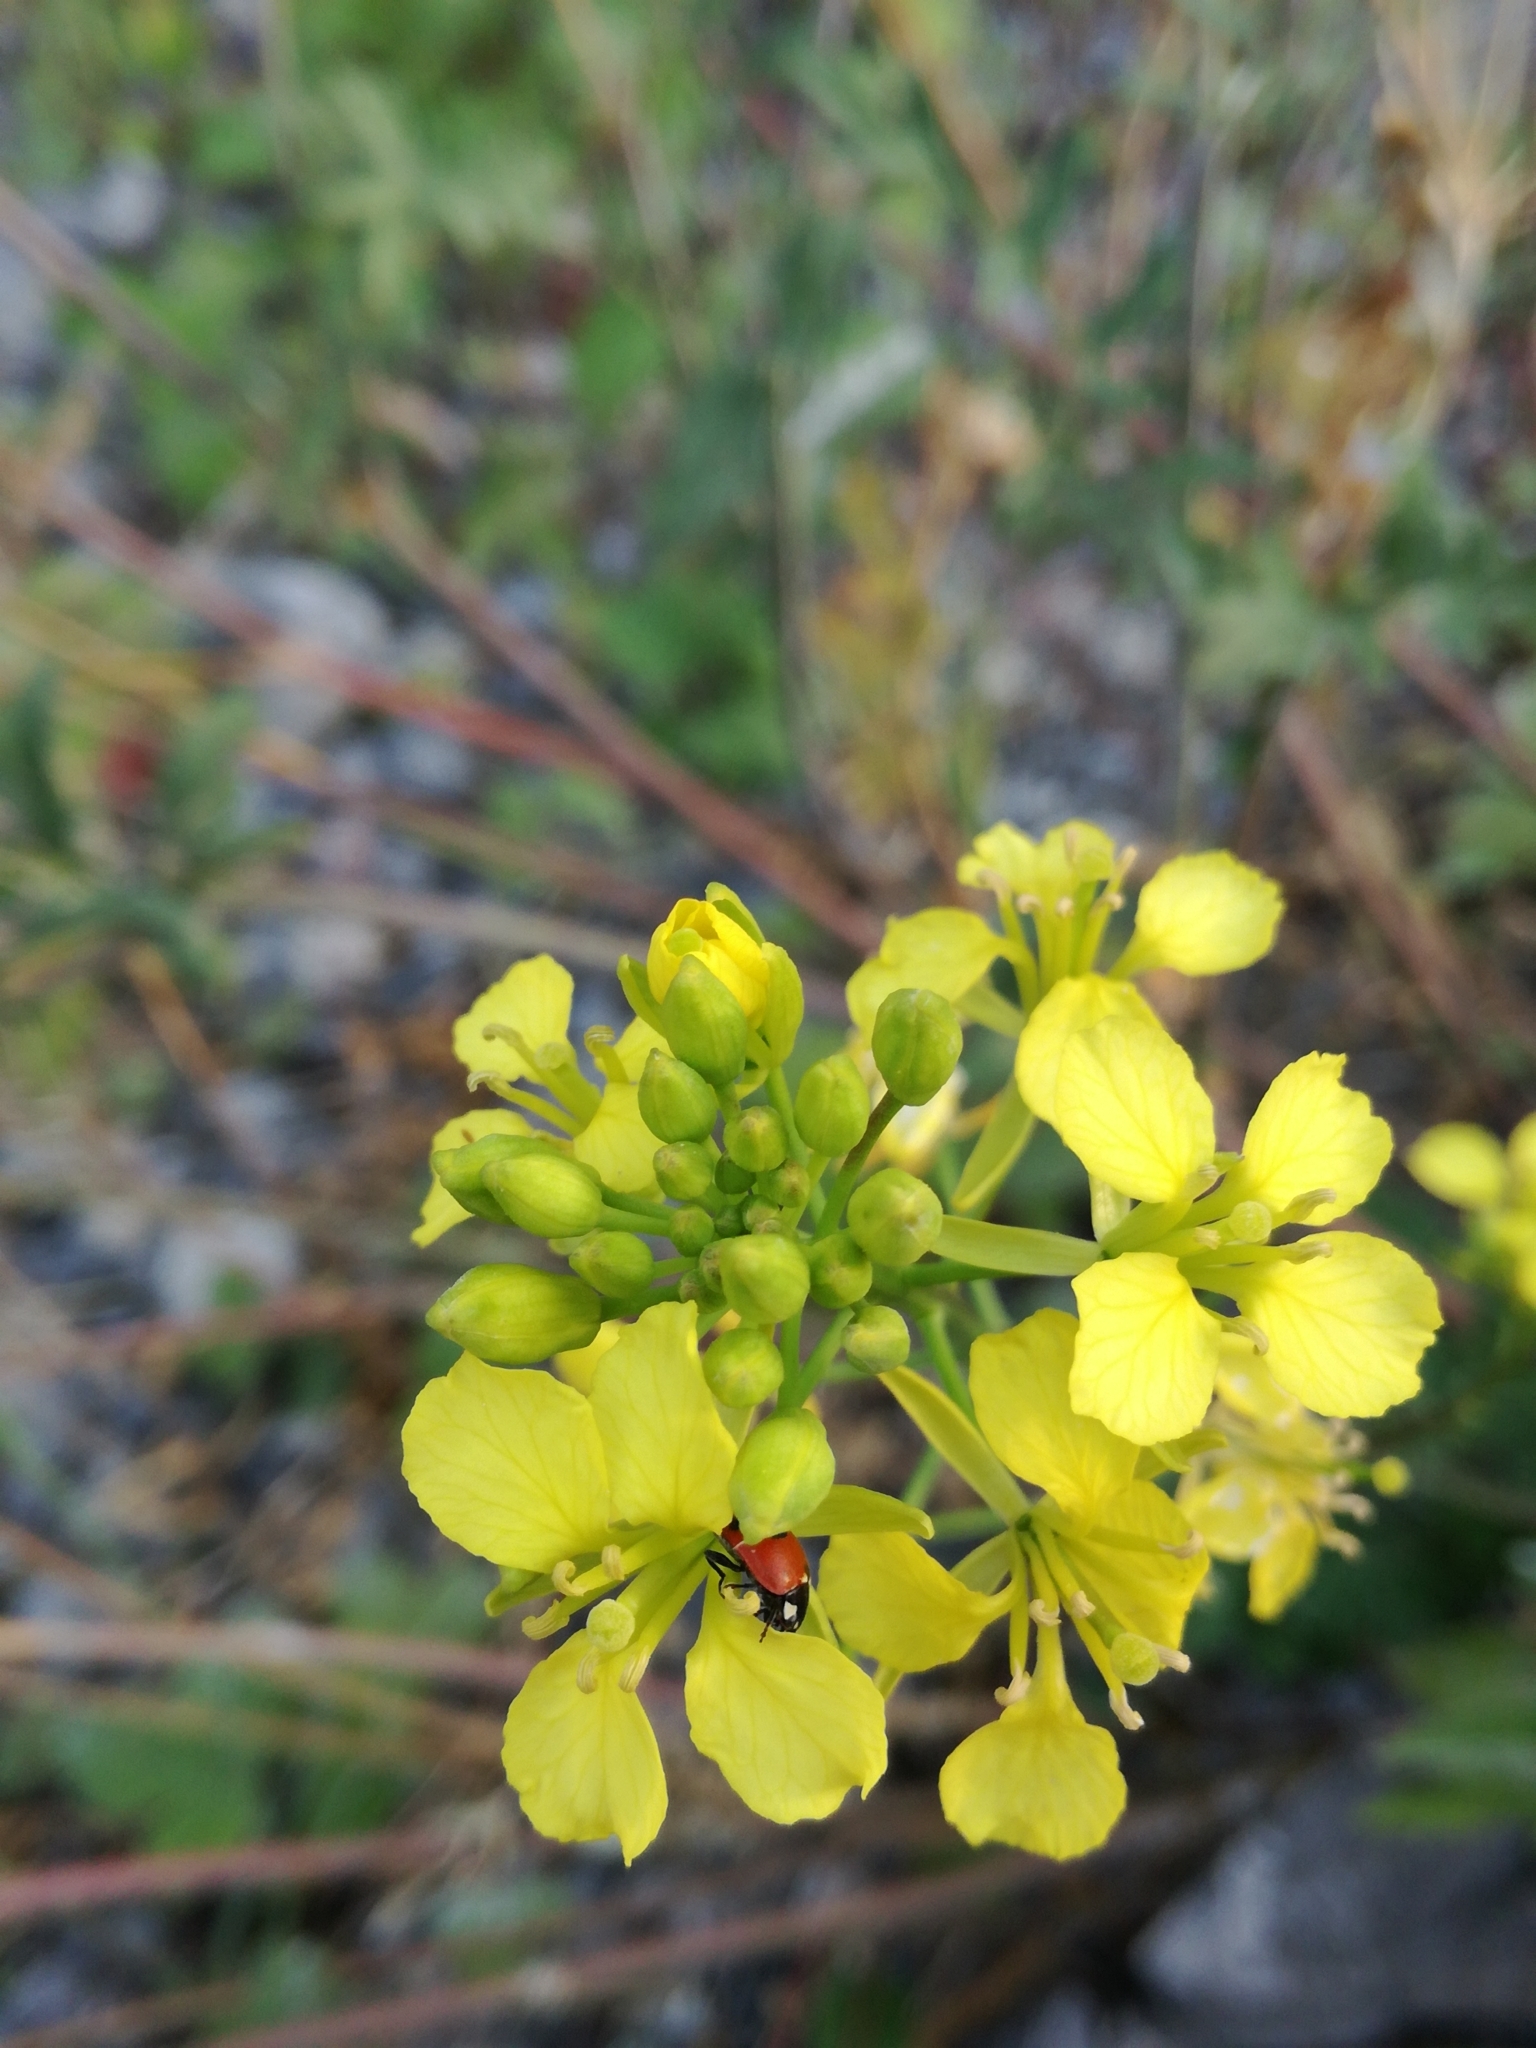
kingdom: Animalia
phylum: Arthropoda
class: Insecta
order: Coleoptera
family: Coccinellidae
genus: Coccinella
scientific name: Coccinella quinquepunctata
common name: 5-spot ladybird
